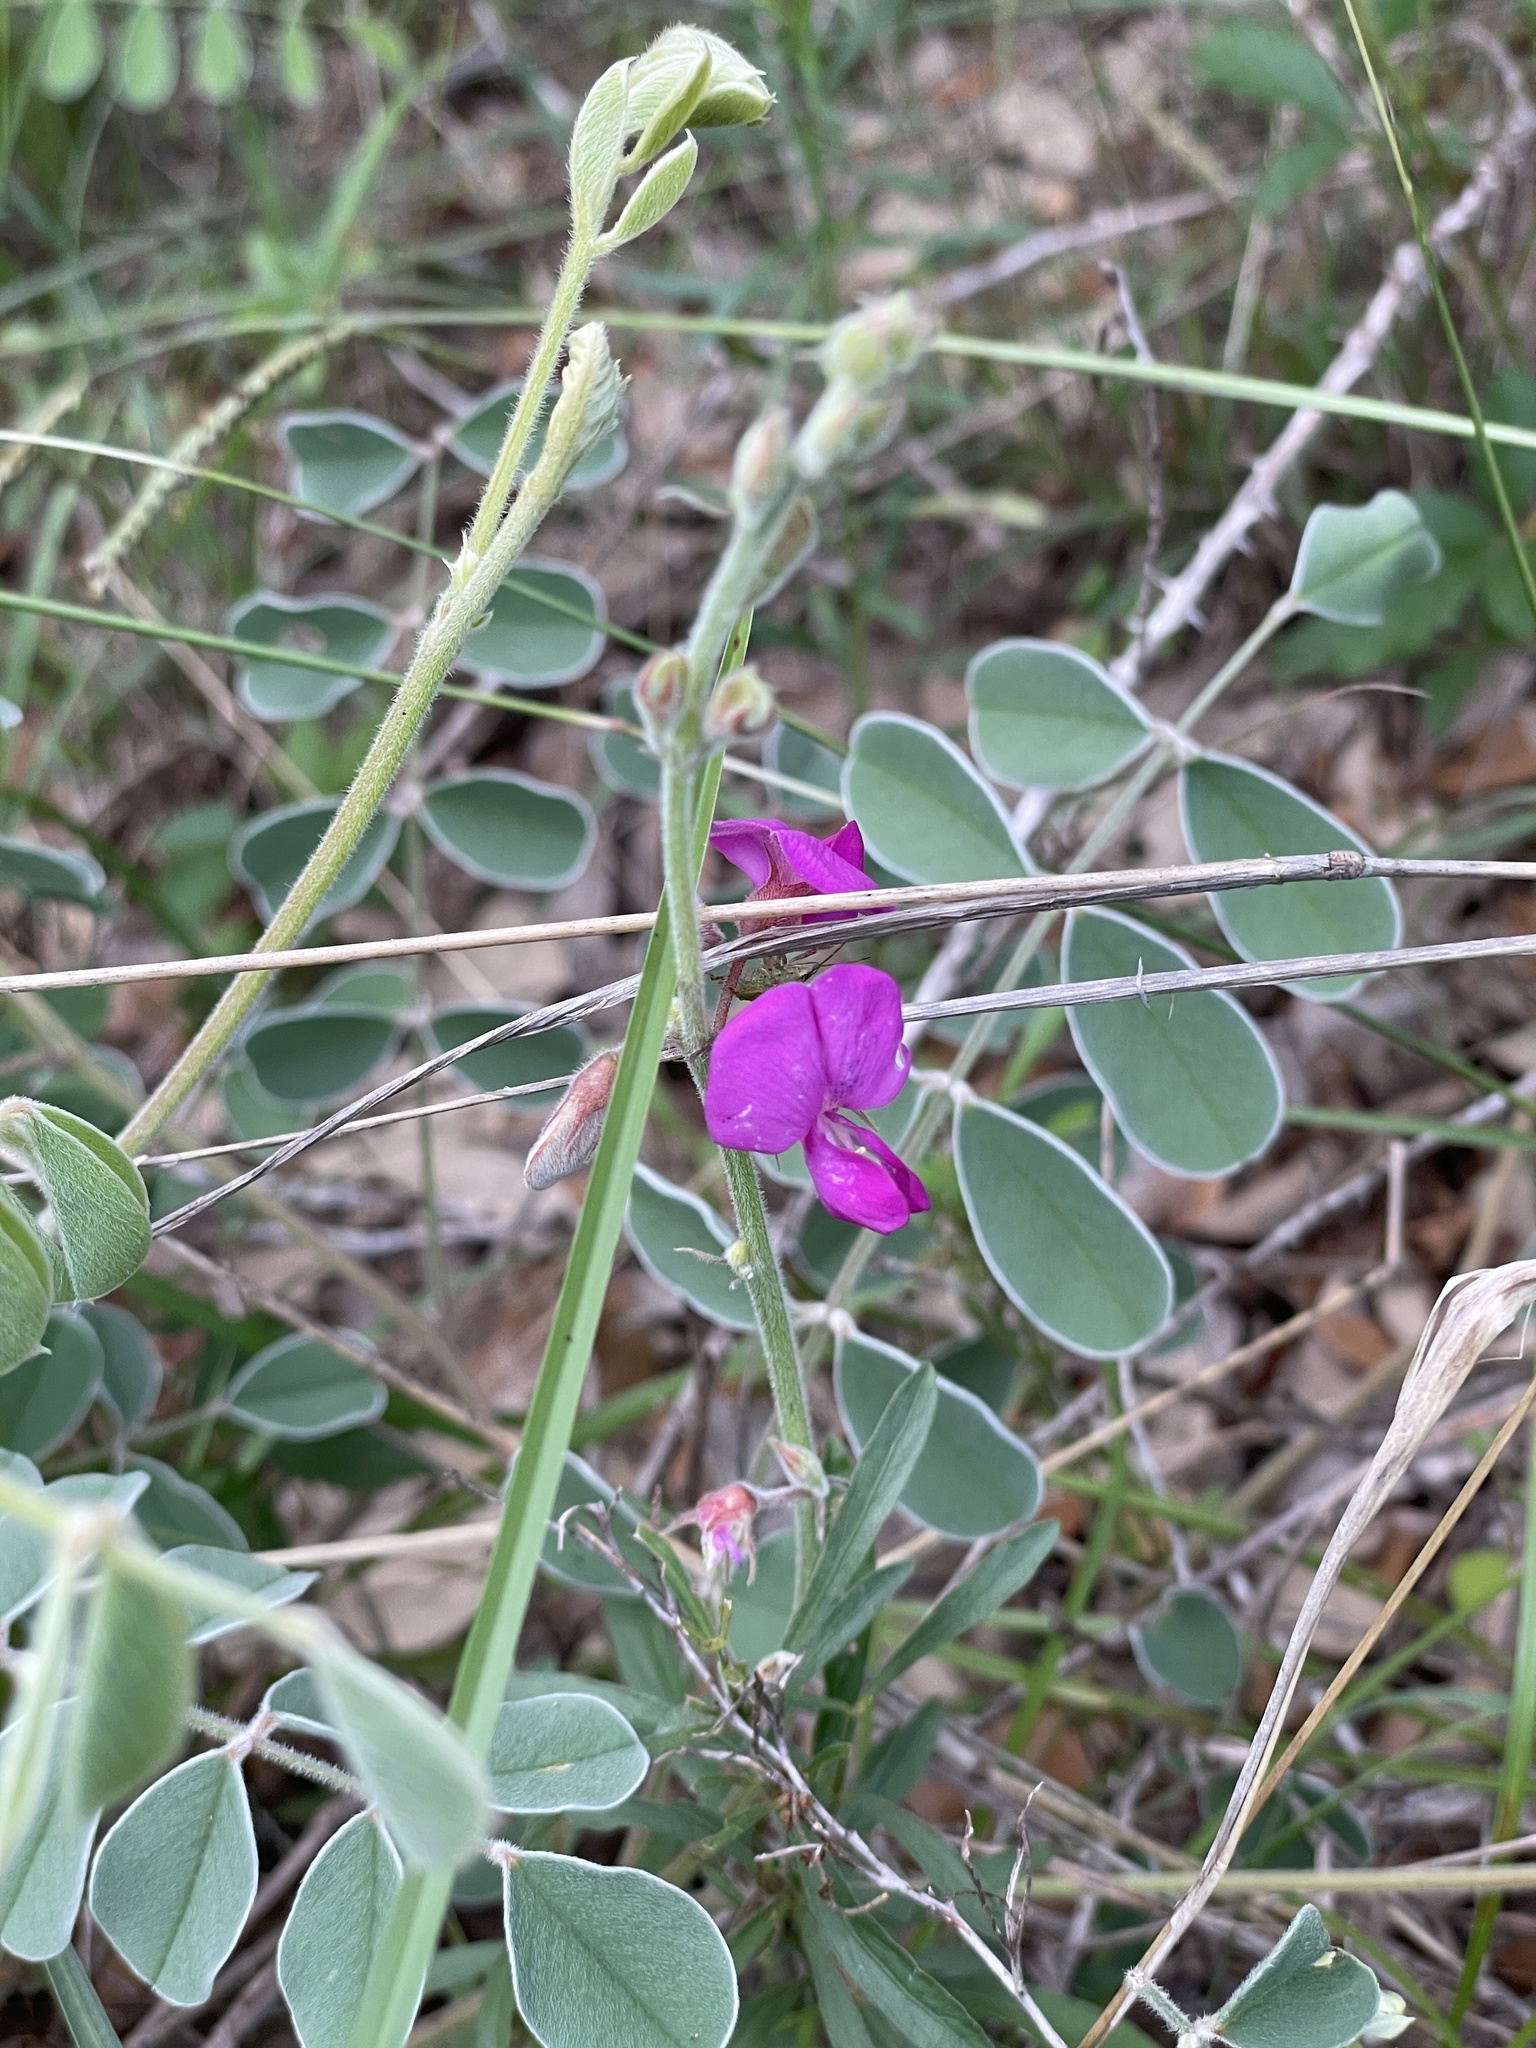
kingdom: Plantae
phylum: Tracheophyta
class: Magnoliopsida
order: Fabales
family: Fabaceae
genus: Tephrosia
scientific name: Tephrosia lindheimeri
